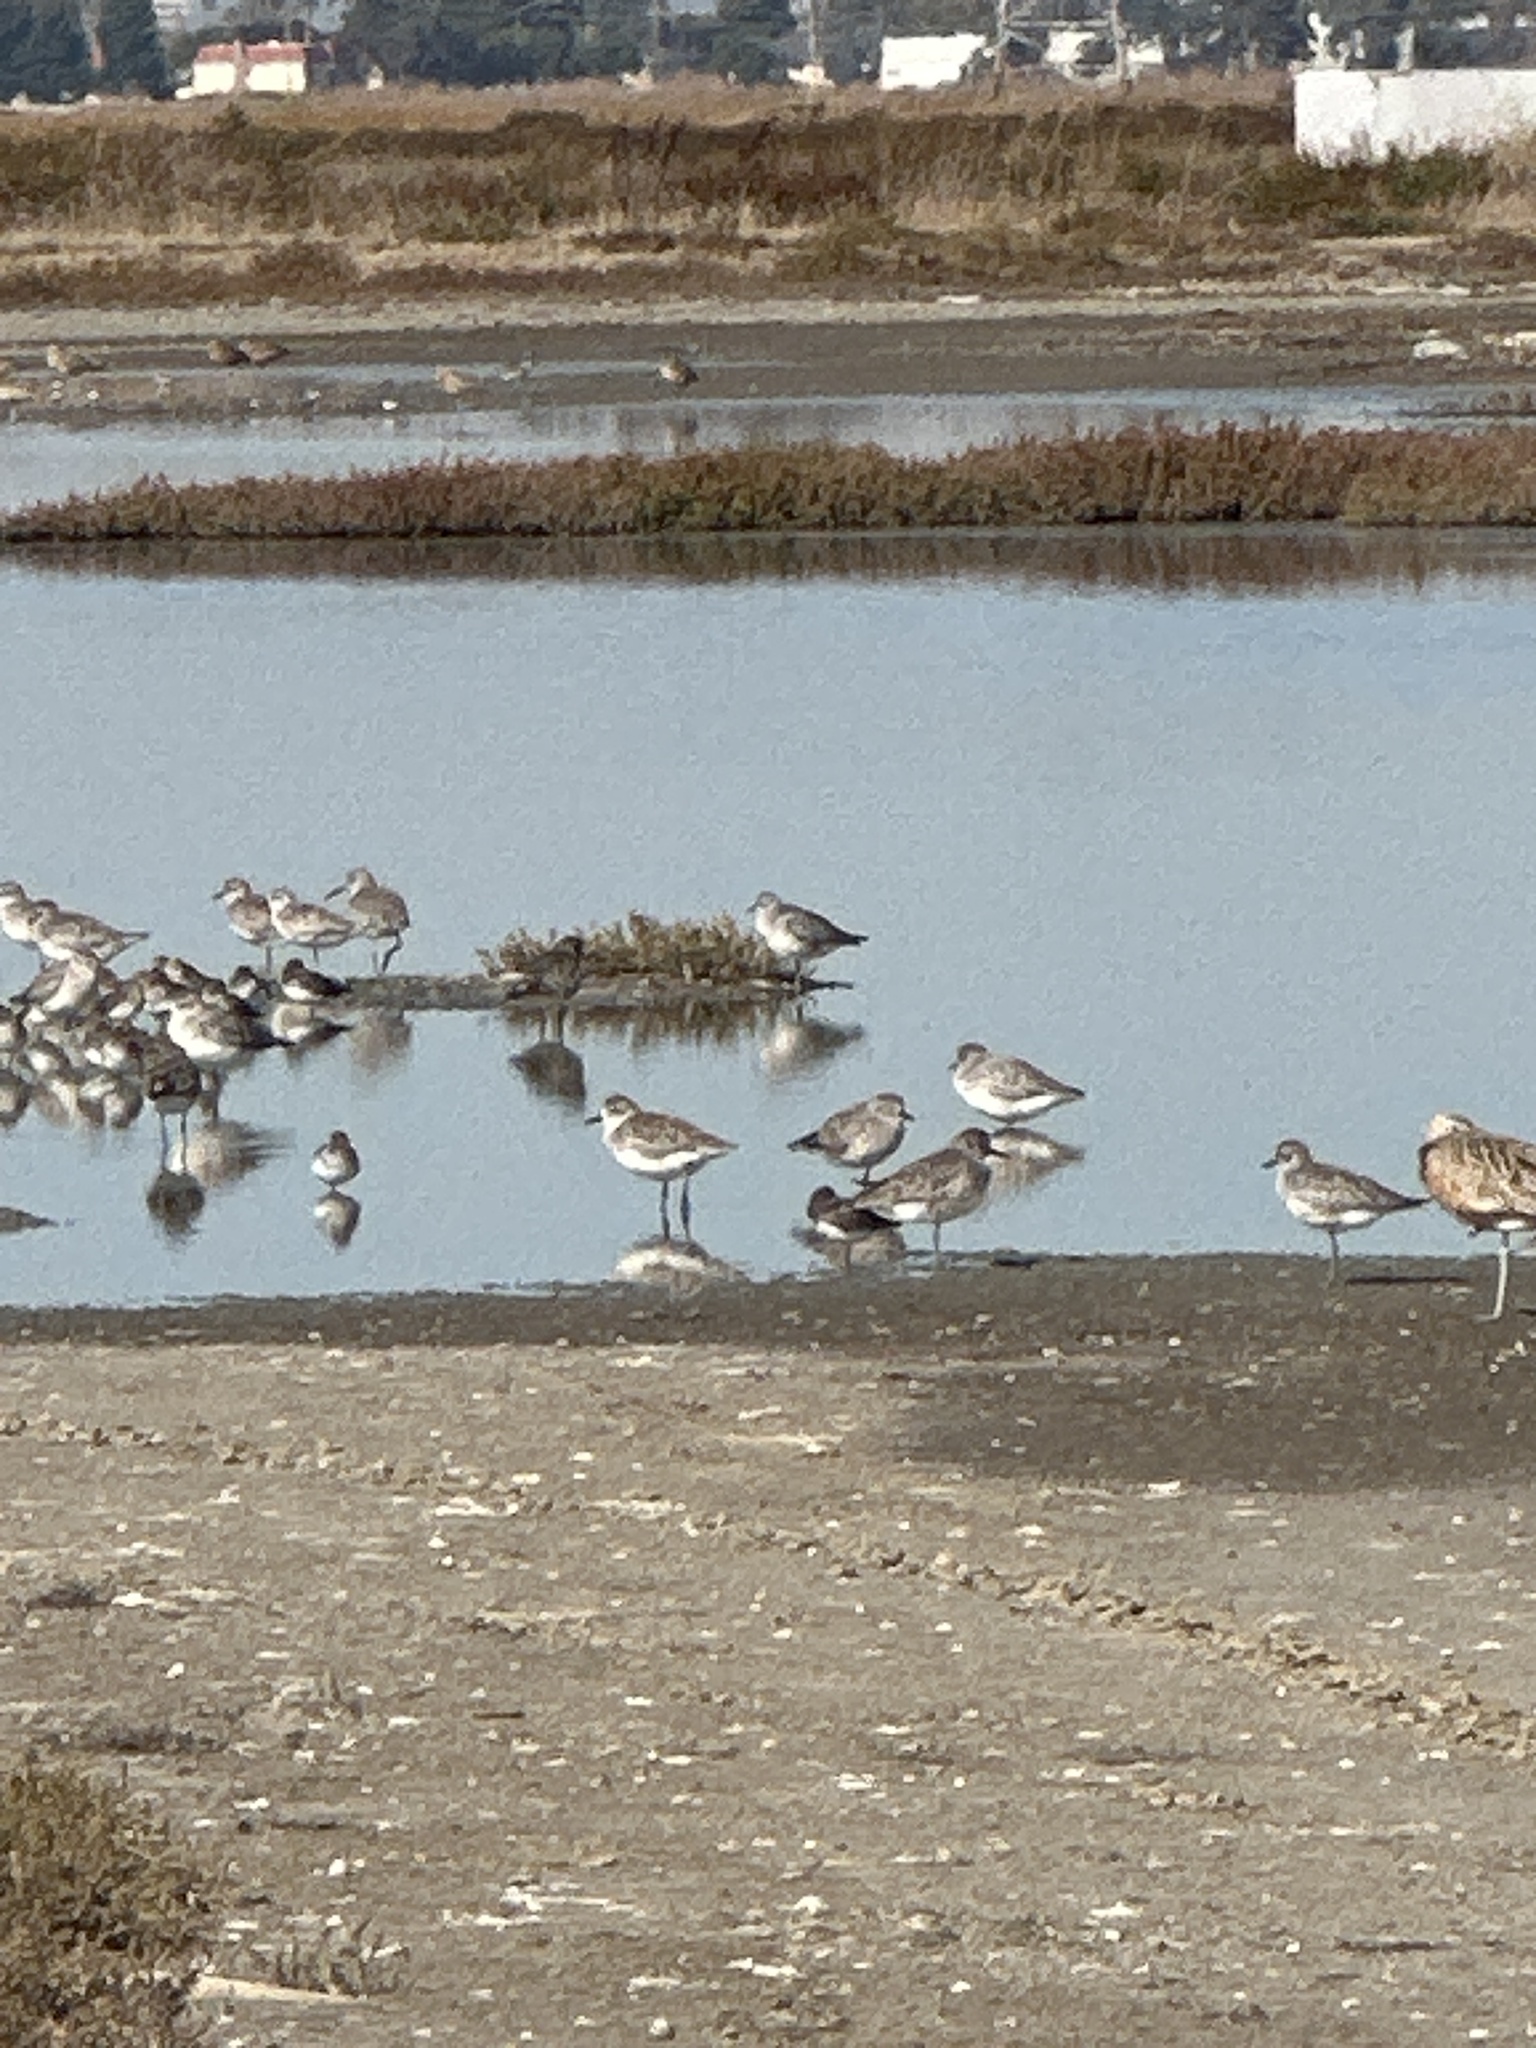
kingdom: Animalia
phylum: Chordata
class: Aves
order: Charadriiformes
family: Charadriidae
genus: Pluvialis
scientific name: Pluvialis squatarola
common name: Grey plover
